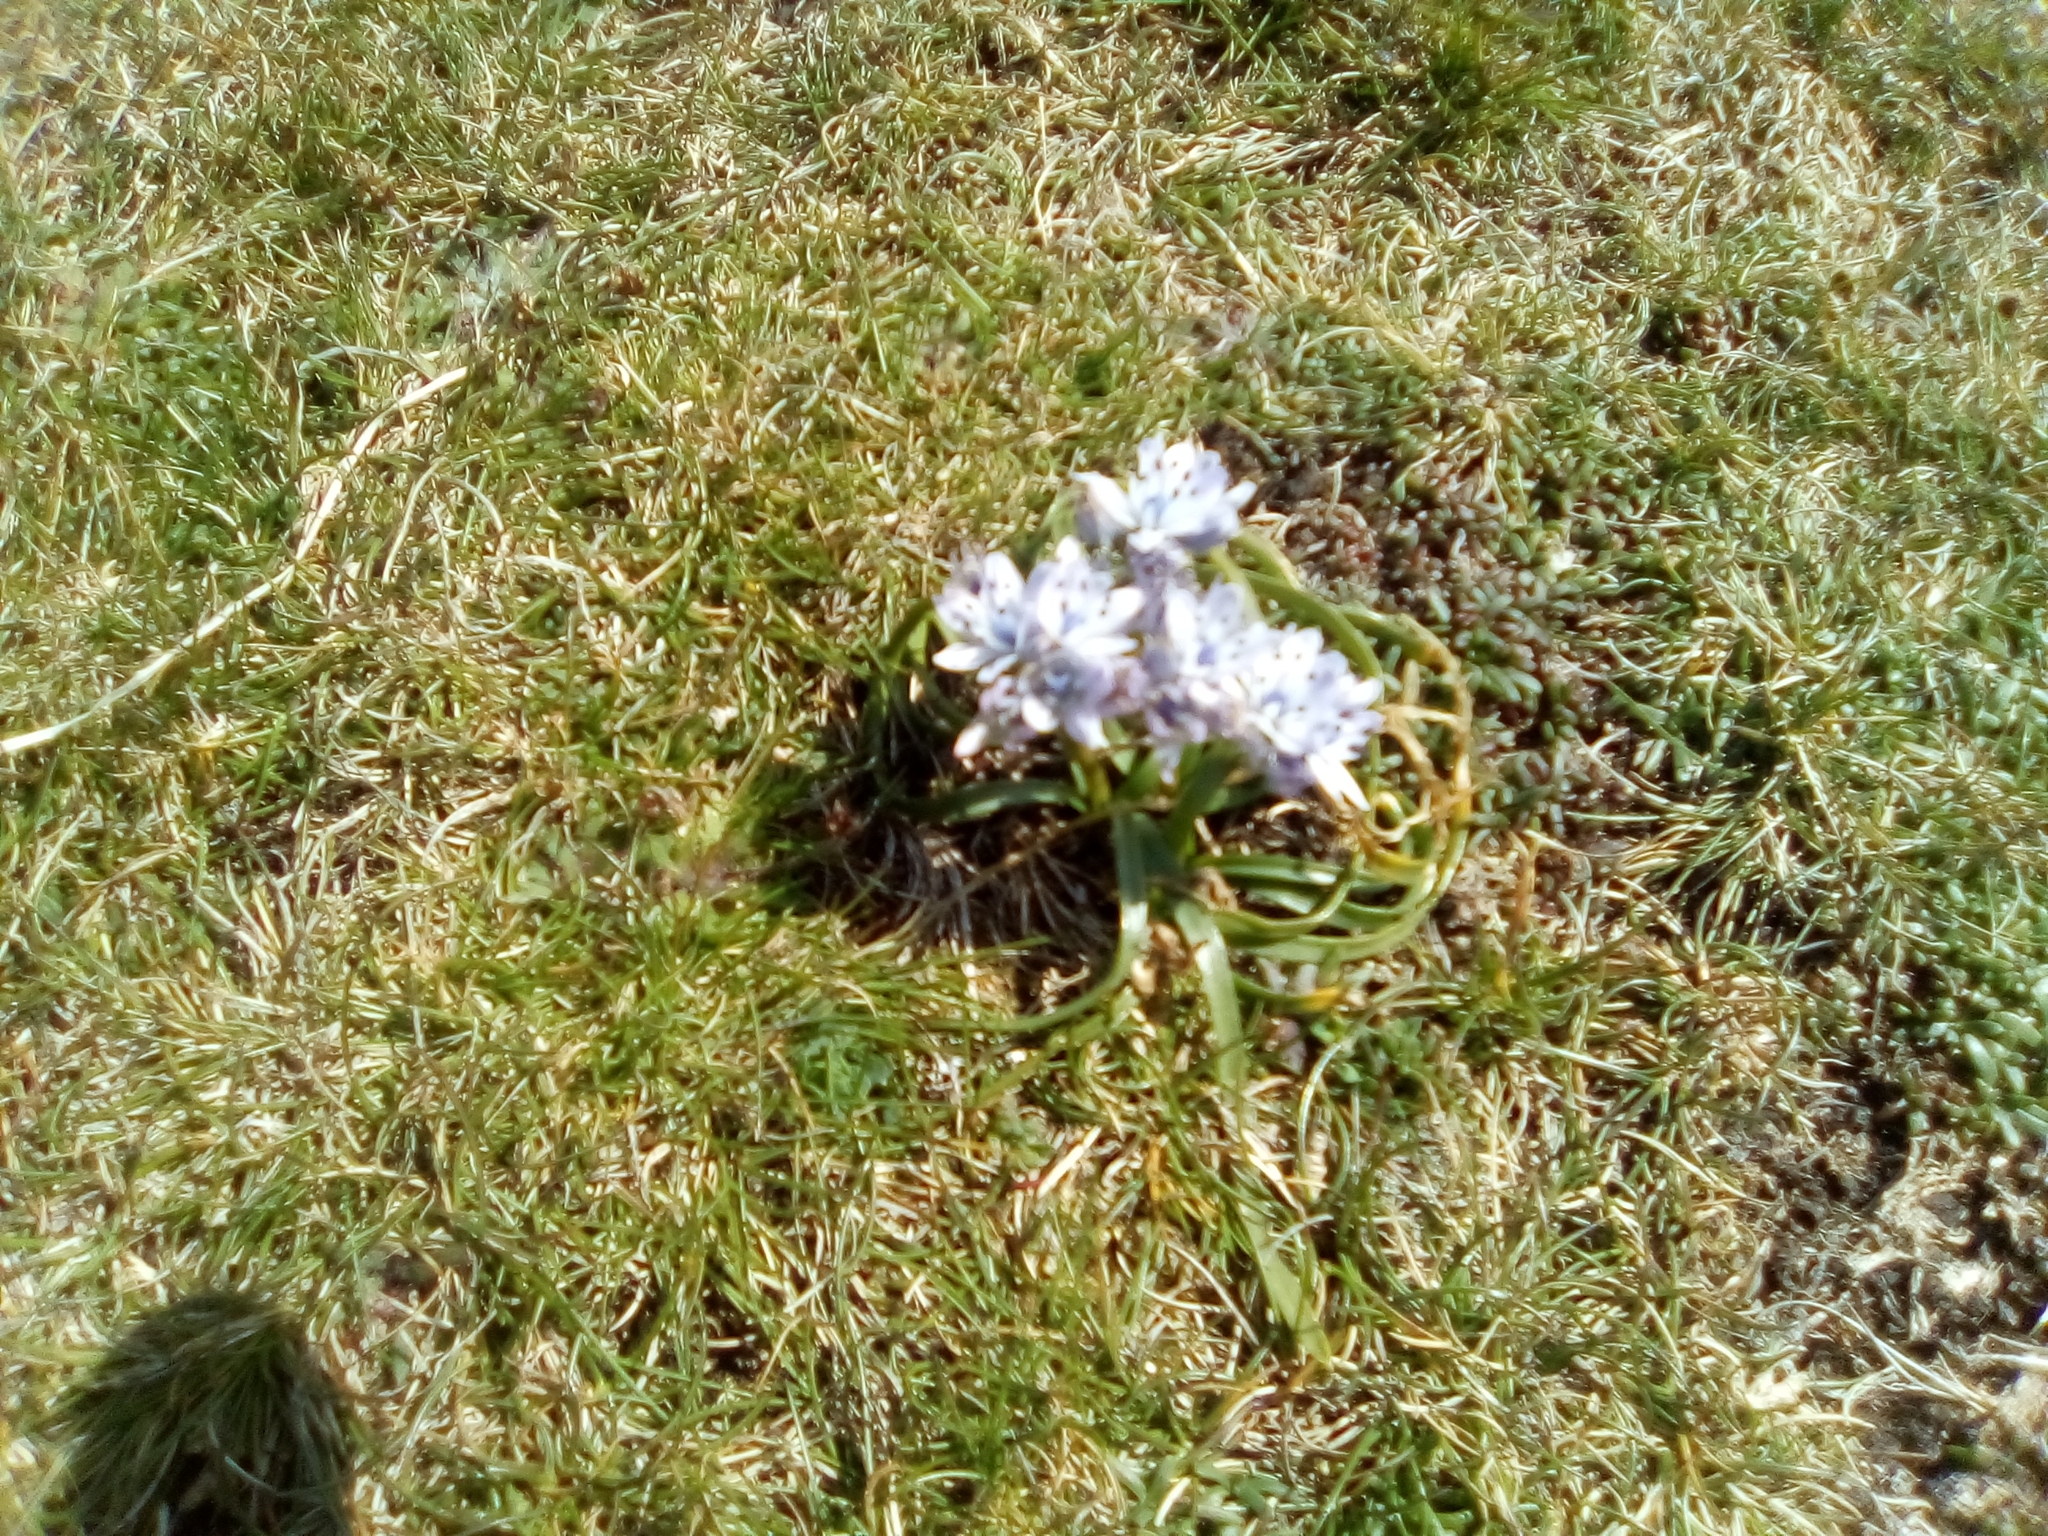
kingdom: Plantae
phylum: Tracheophyta
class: Liliopsida
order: Asparagales
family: Asparagaceae
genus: Scilla
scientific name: Scilla verna
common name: Spring squill
